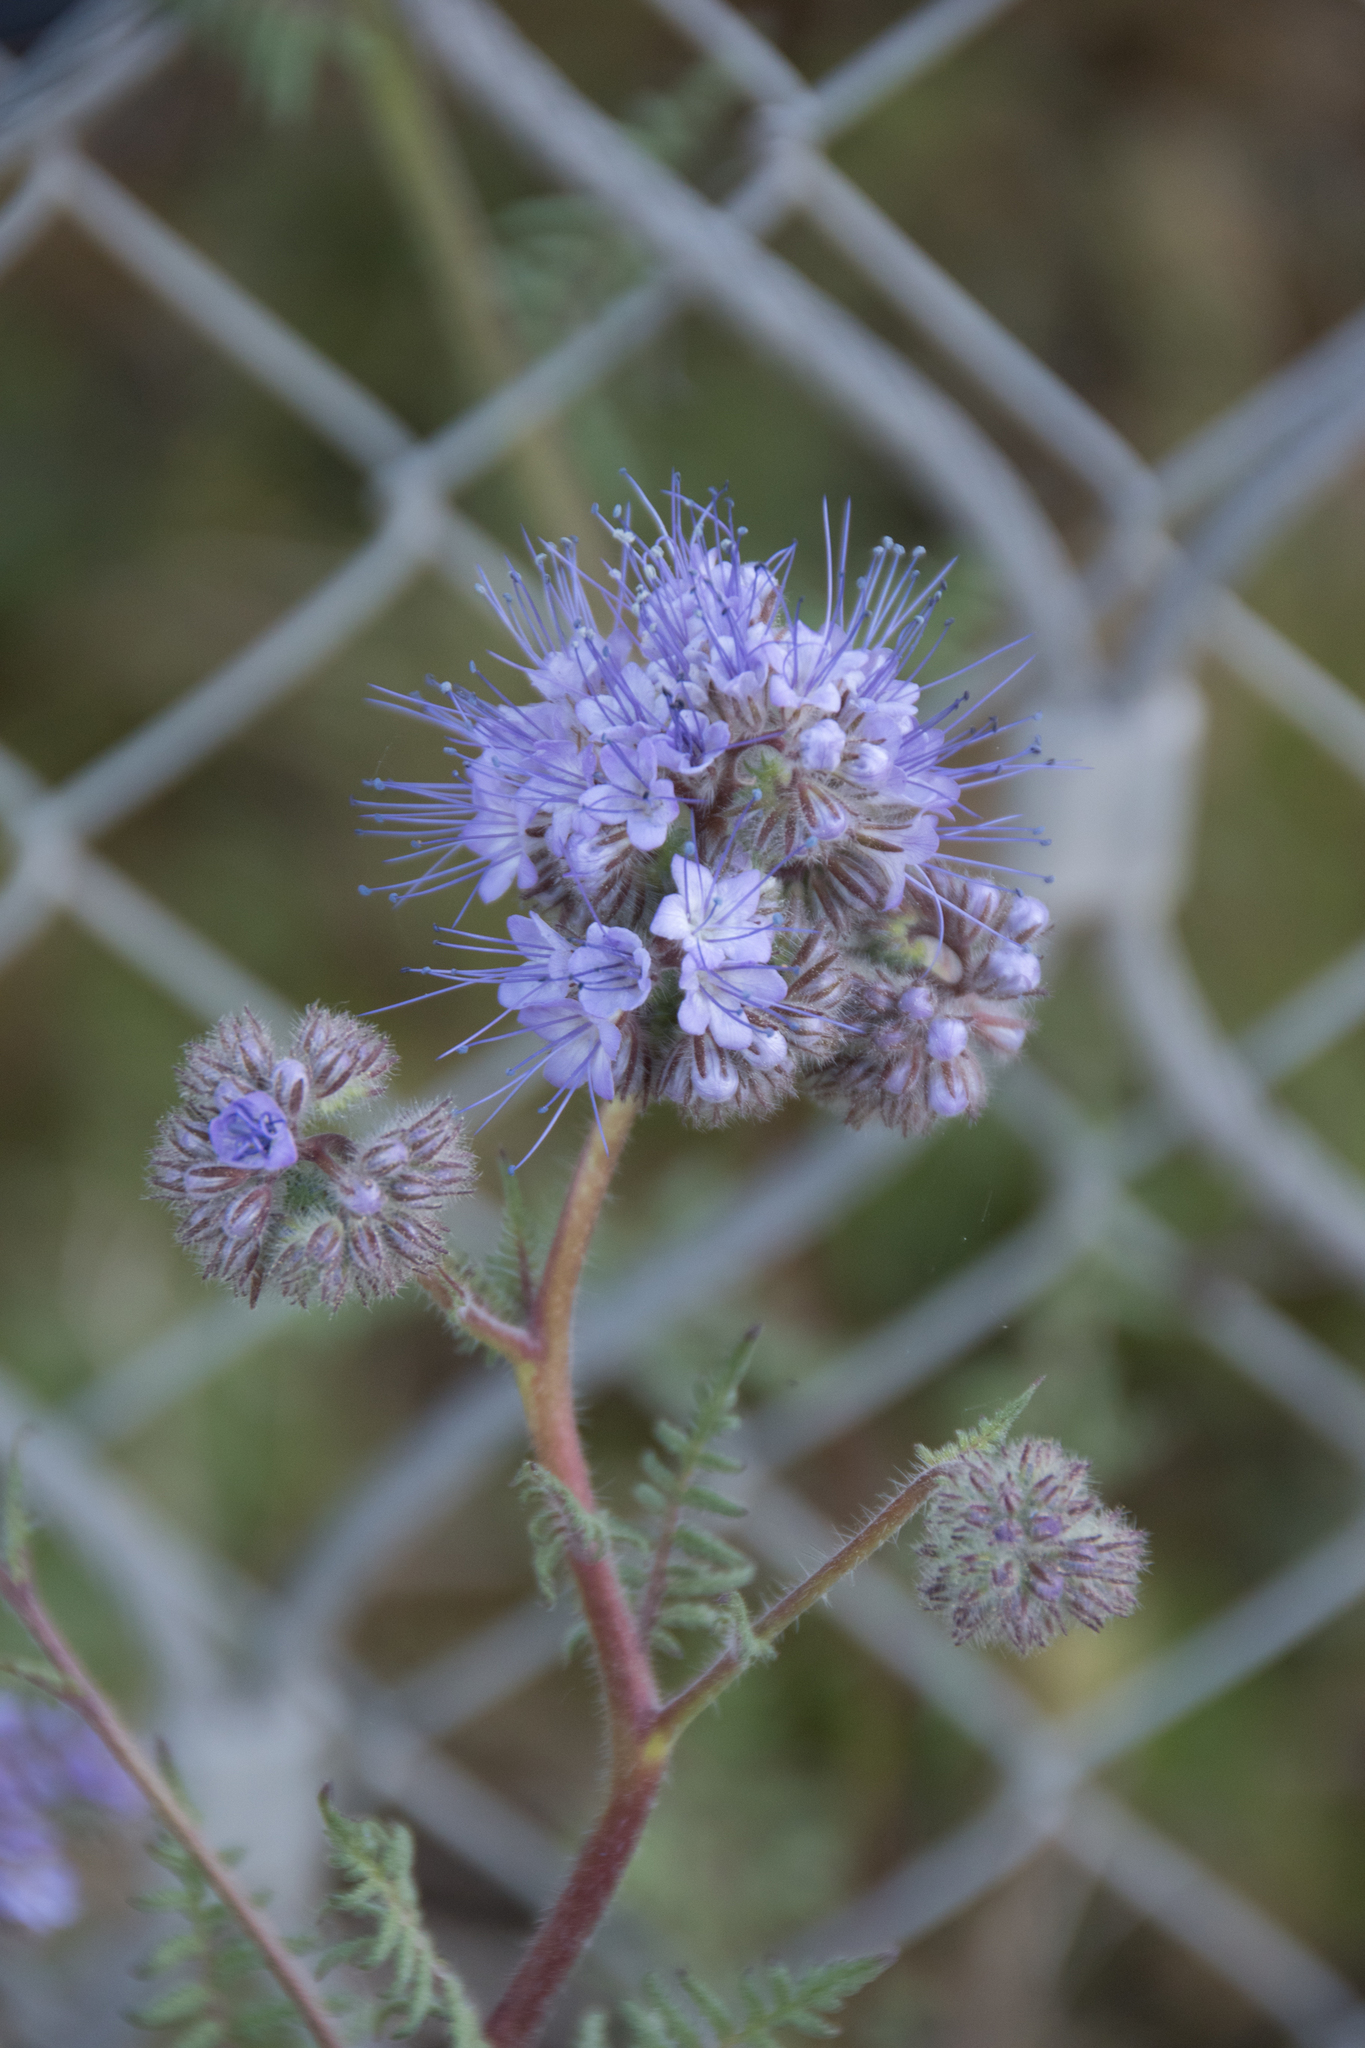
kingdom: Plantae
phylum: Tracheophyta
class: Magnoliopsida
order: Boraginales
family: Hydrophyllaceae
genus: Phacelia
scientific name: Phacelia tanacetifolia
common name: Phacelia
